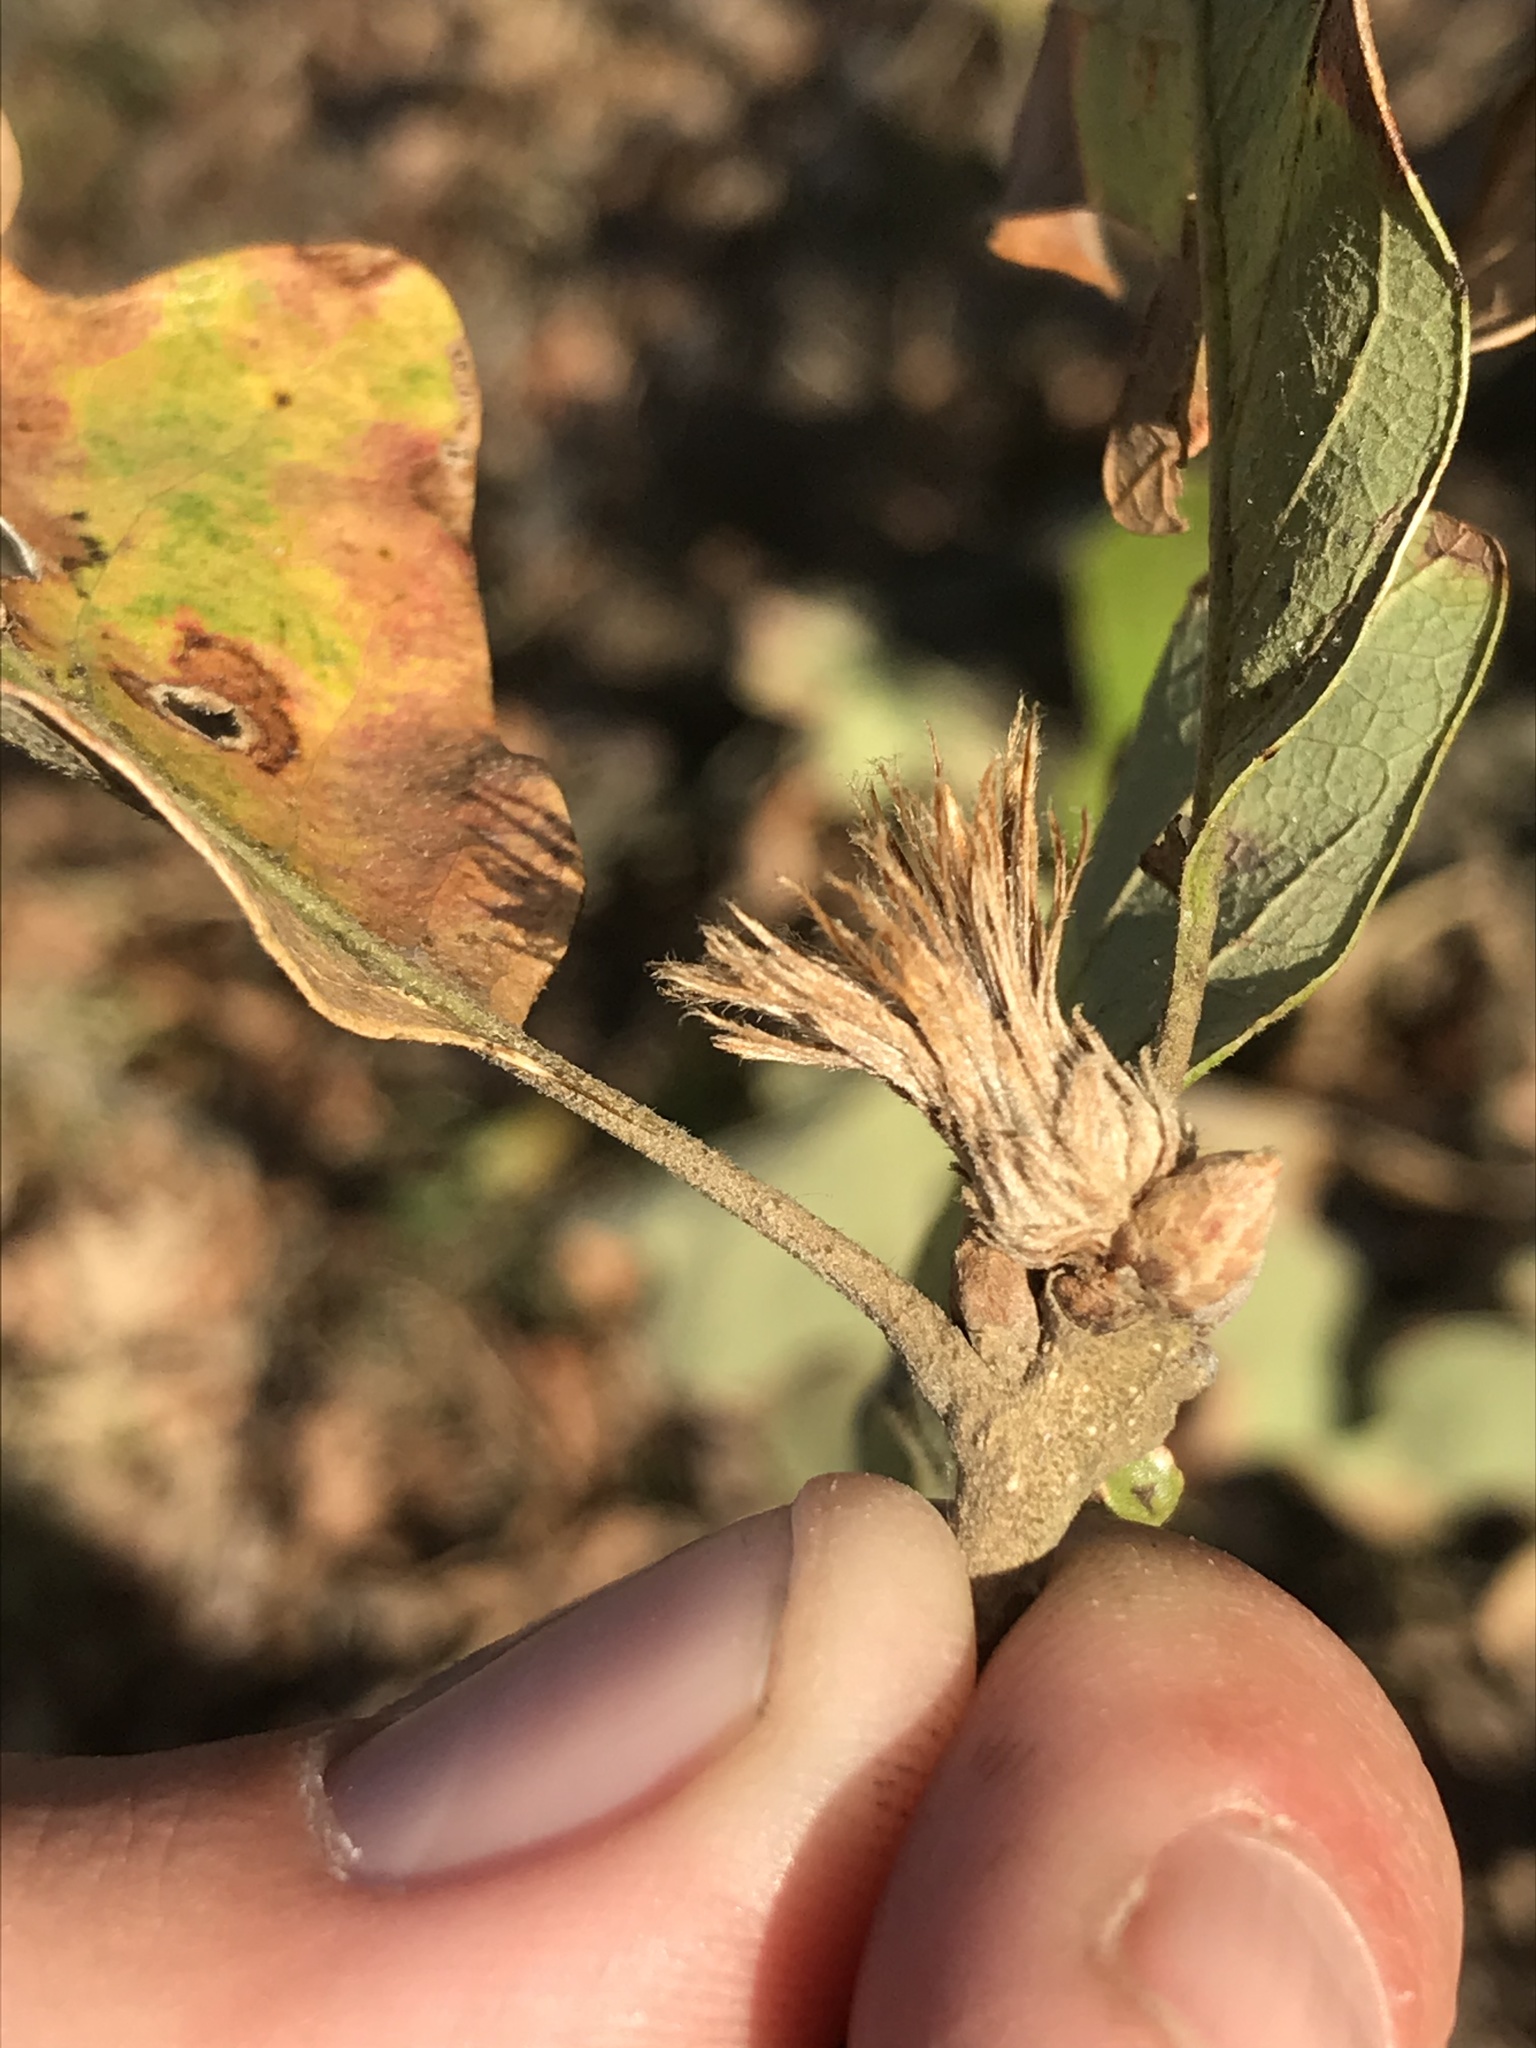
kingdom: Animalia
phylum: Arthropoda
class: Insecta
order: Hymenoptera
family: Cynipidae
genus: Andricus
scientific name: Andricus
